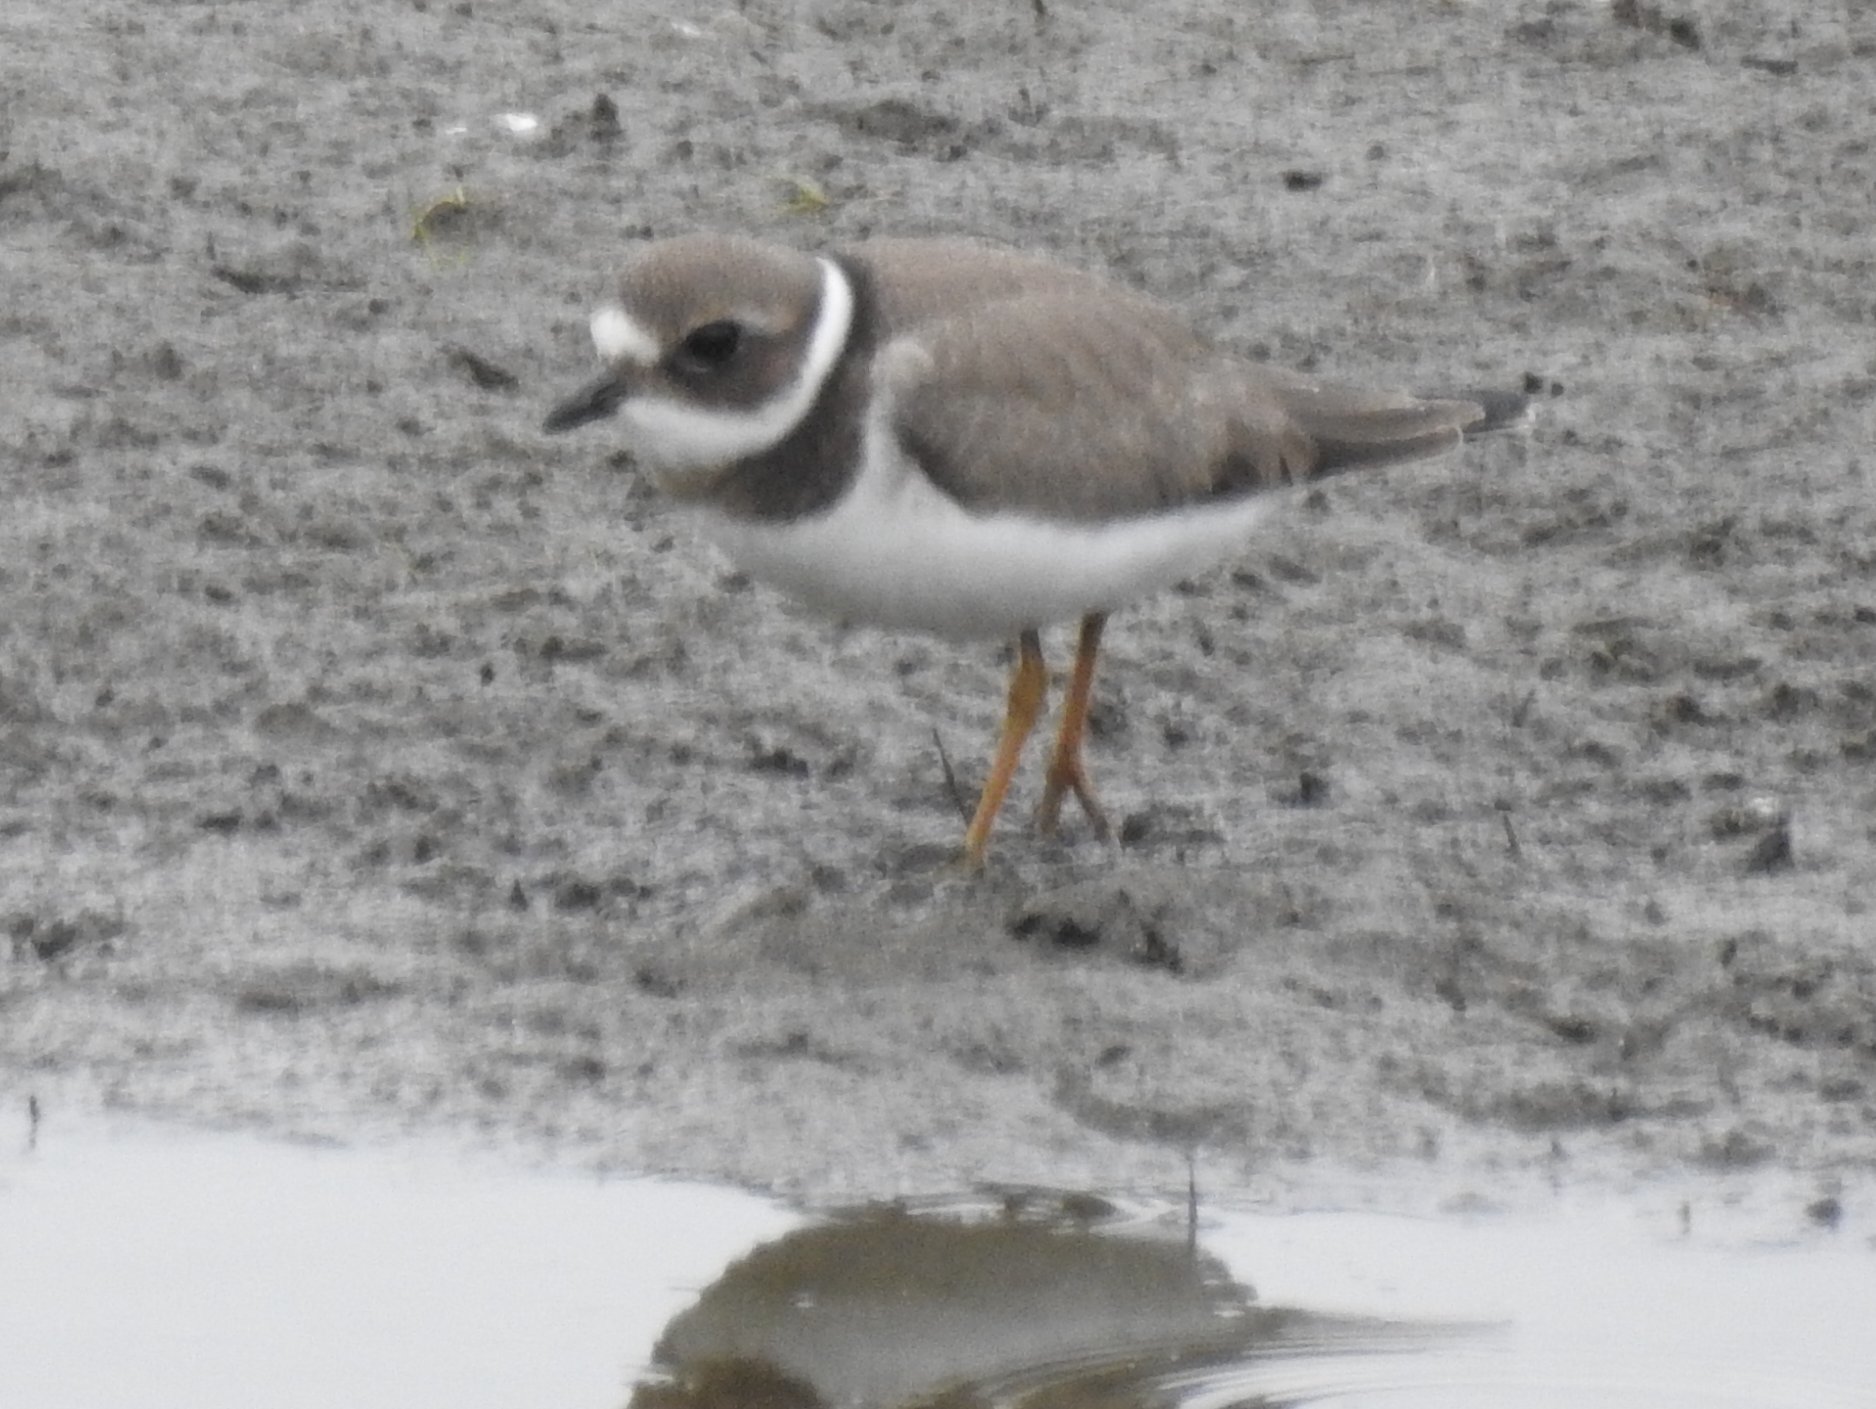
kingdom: Animalia
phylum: Chordata
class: Aves
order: Charadriiformes
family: Charadriidae
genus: Charadrius
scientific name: Charadrius hiaticula
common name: Common ringed plover
